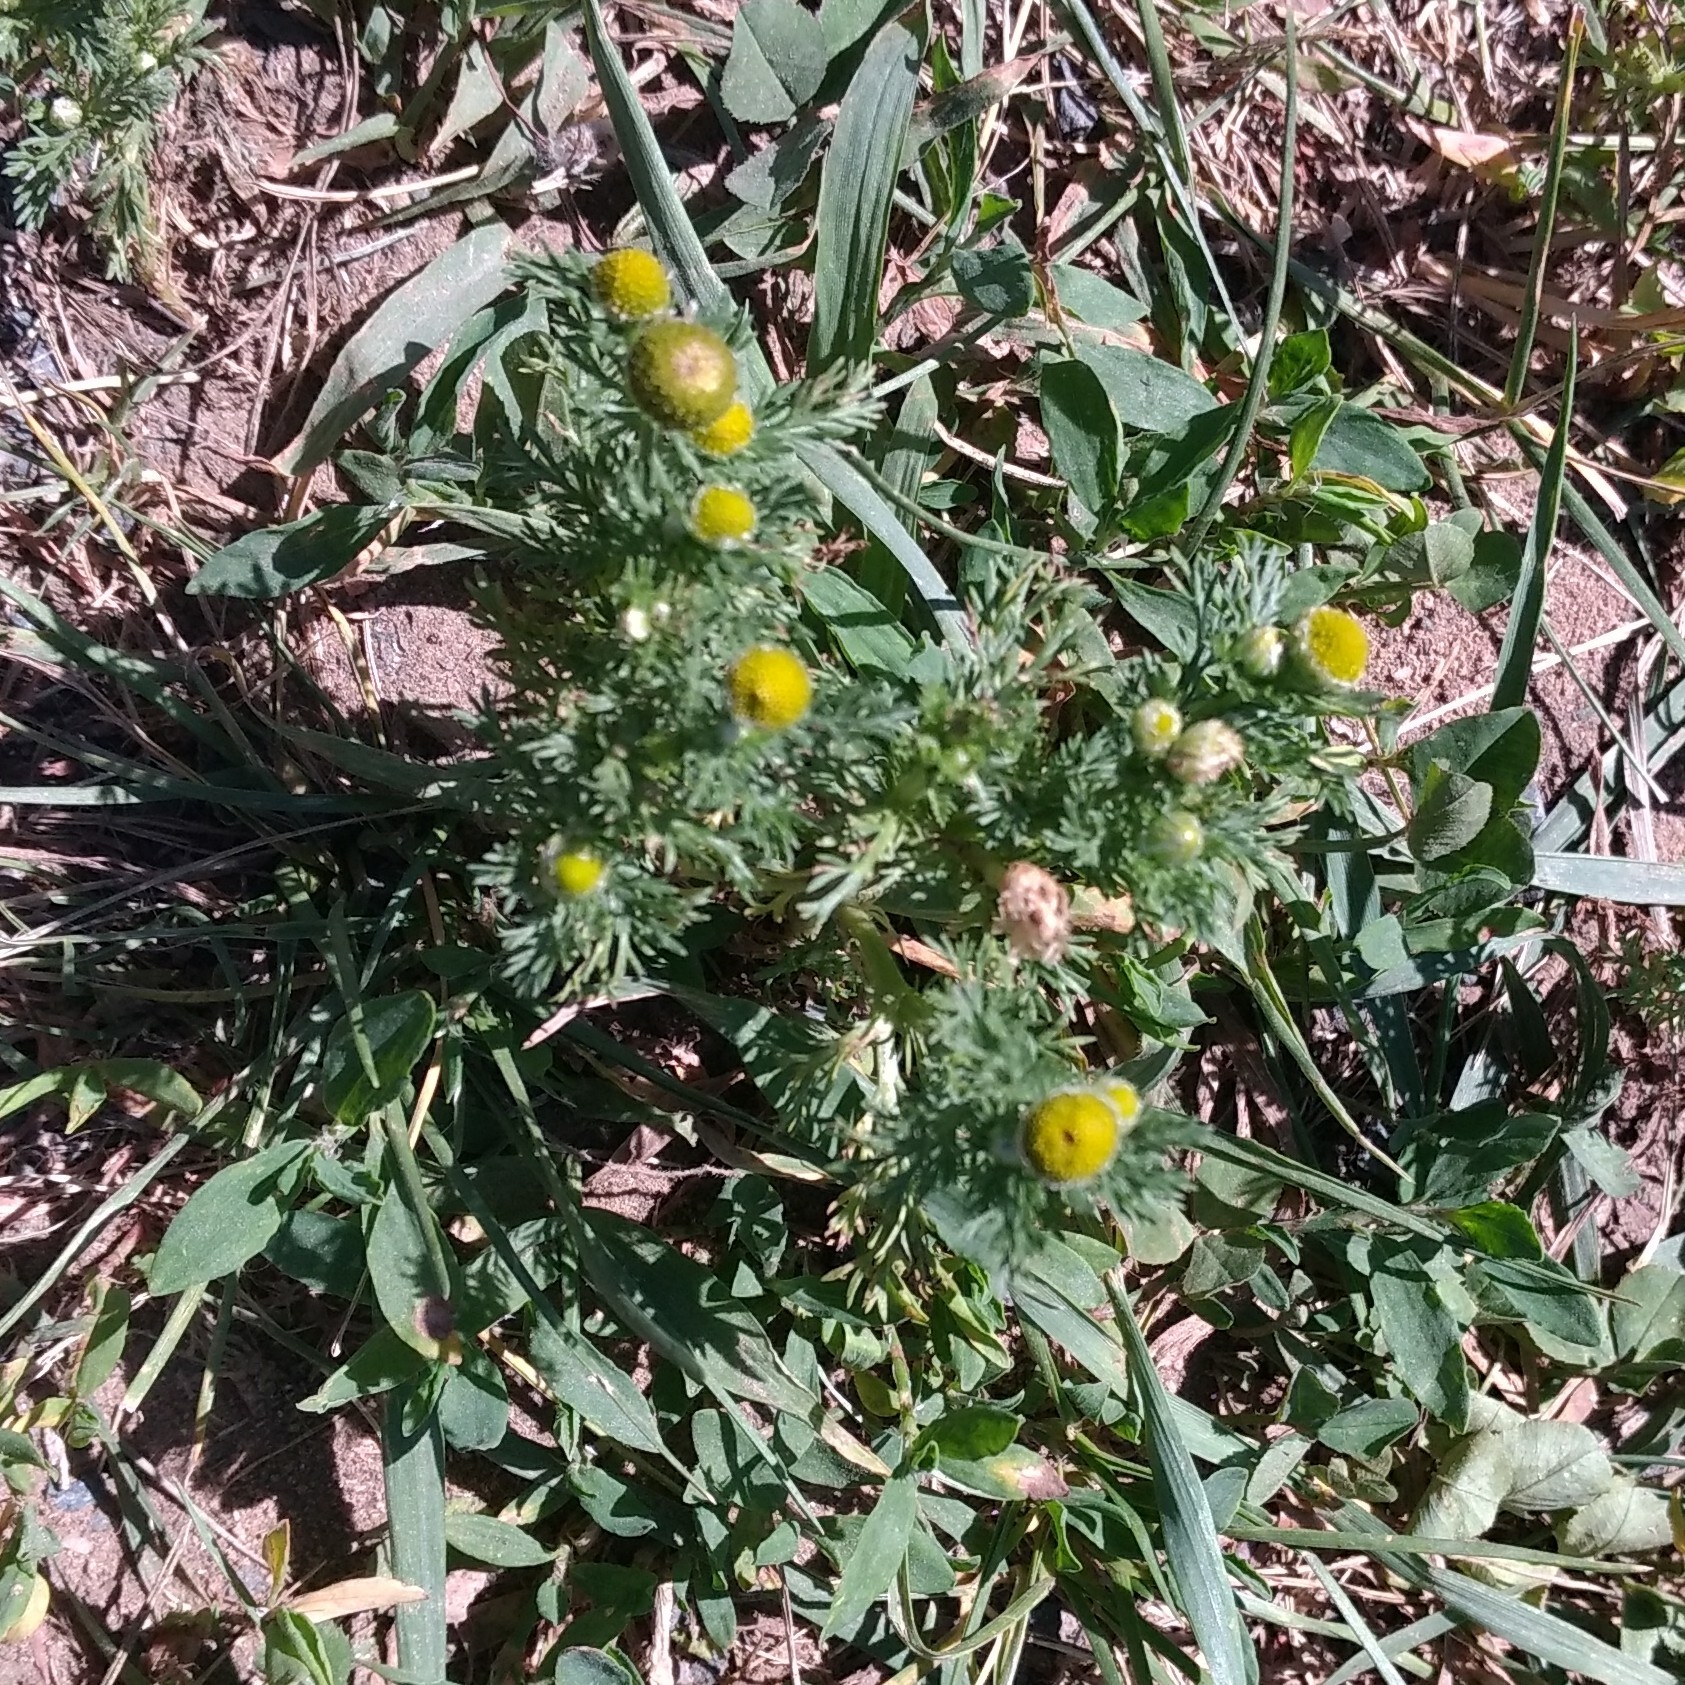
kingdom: Plantae
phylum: Tracheophyta
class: Magnoliopsida
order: Asterales
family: Asteraceae
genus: Matricaria
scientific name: Matricaria discoidea
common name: Disc mayweed
